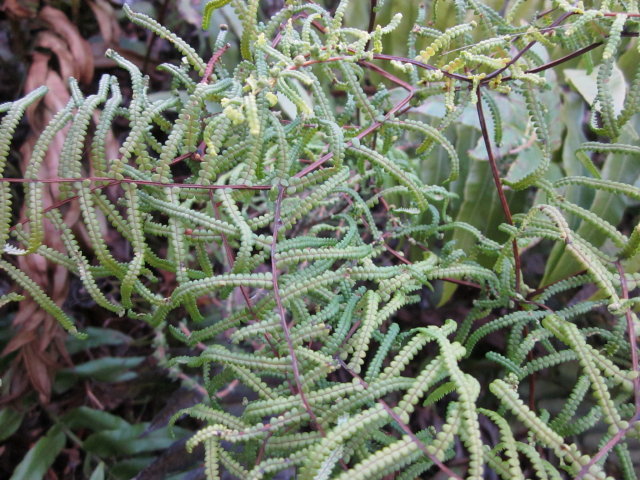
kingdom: Plantae
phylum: Tracheophyta
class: Polypodiopsida
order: Gleicheniales
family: Gleicheniaceae
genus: Gleichenia
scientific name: Gleichenia polypodioides
